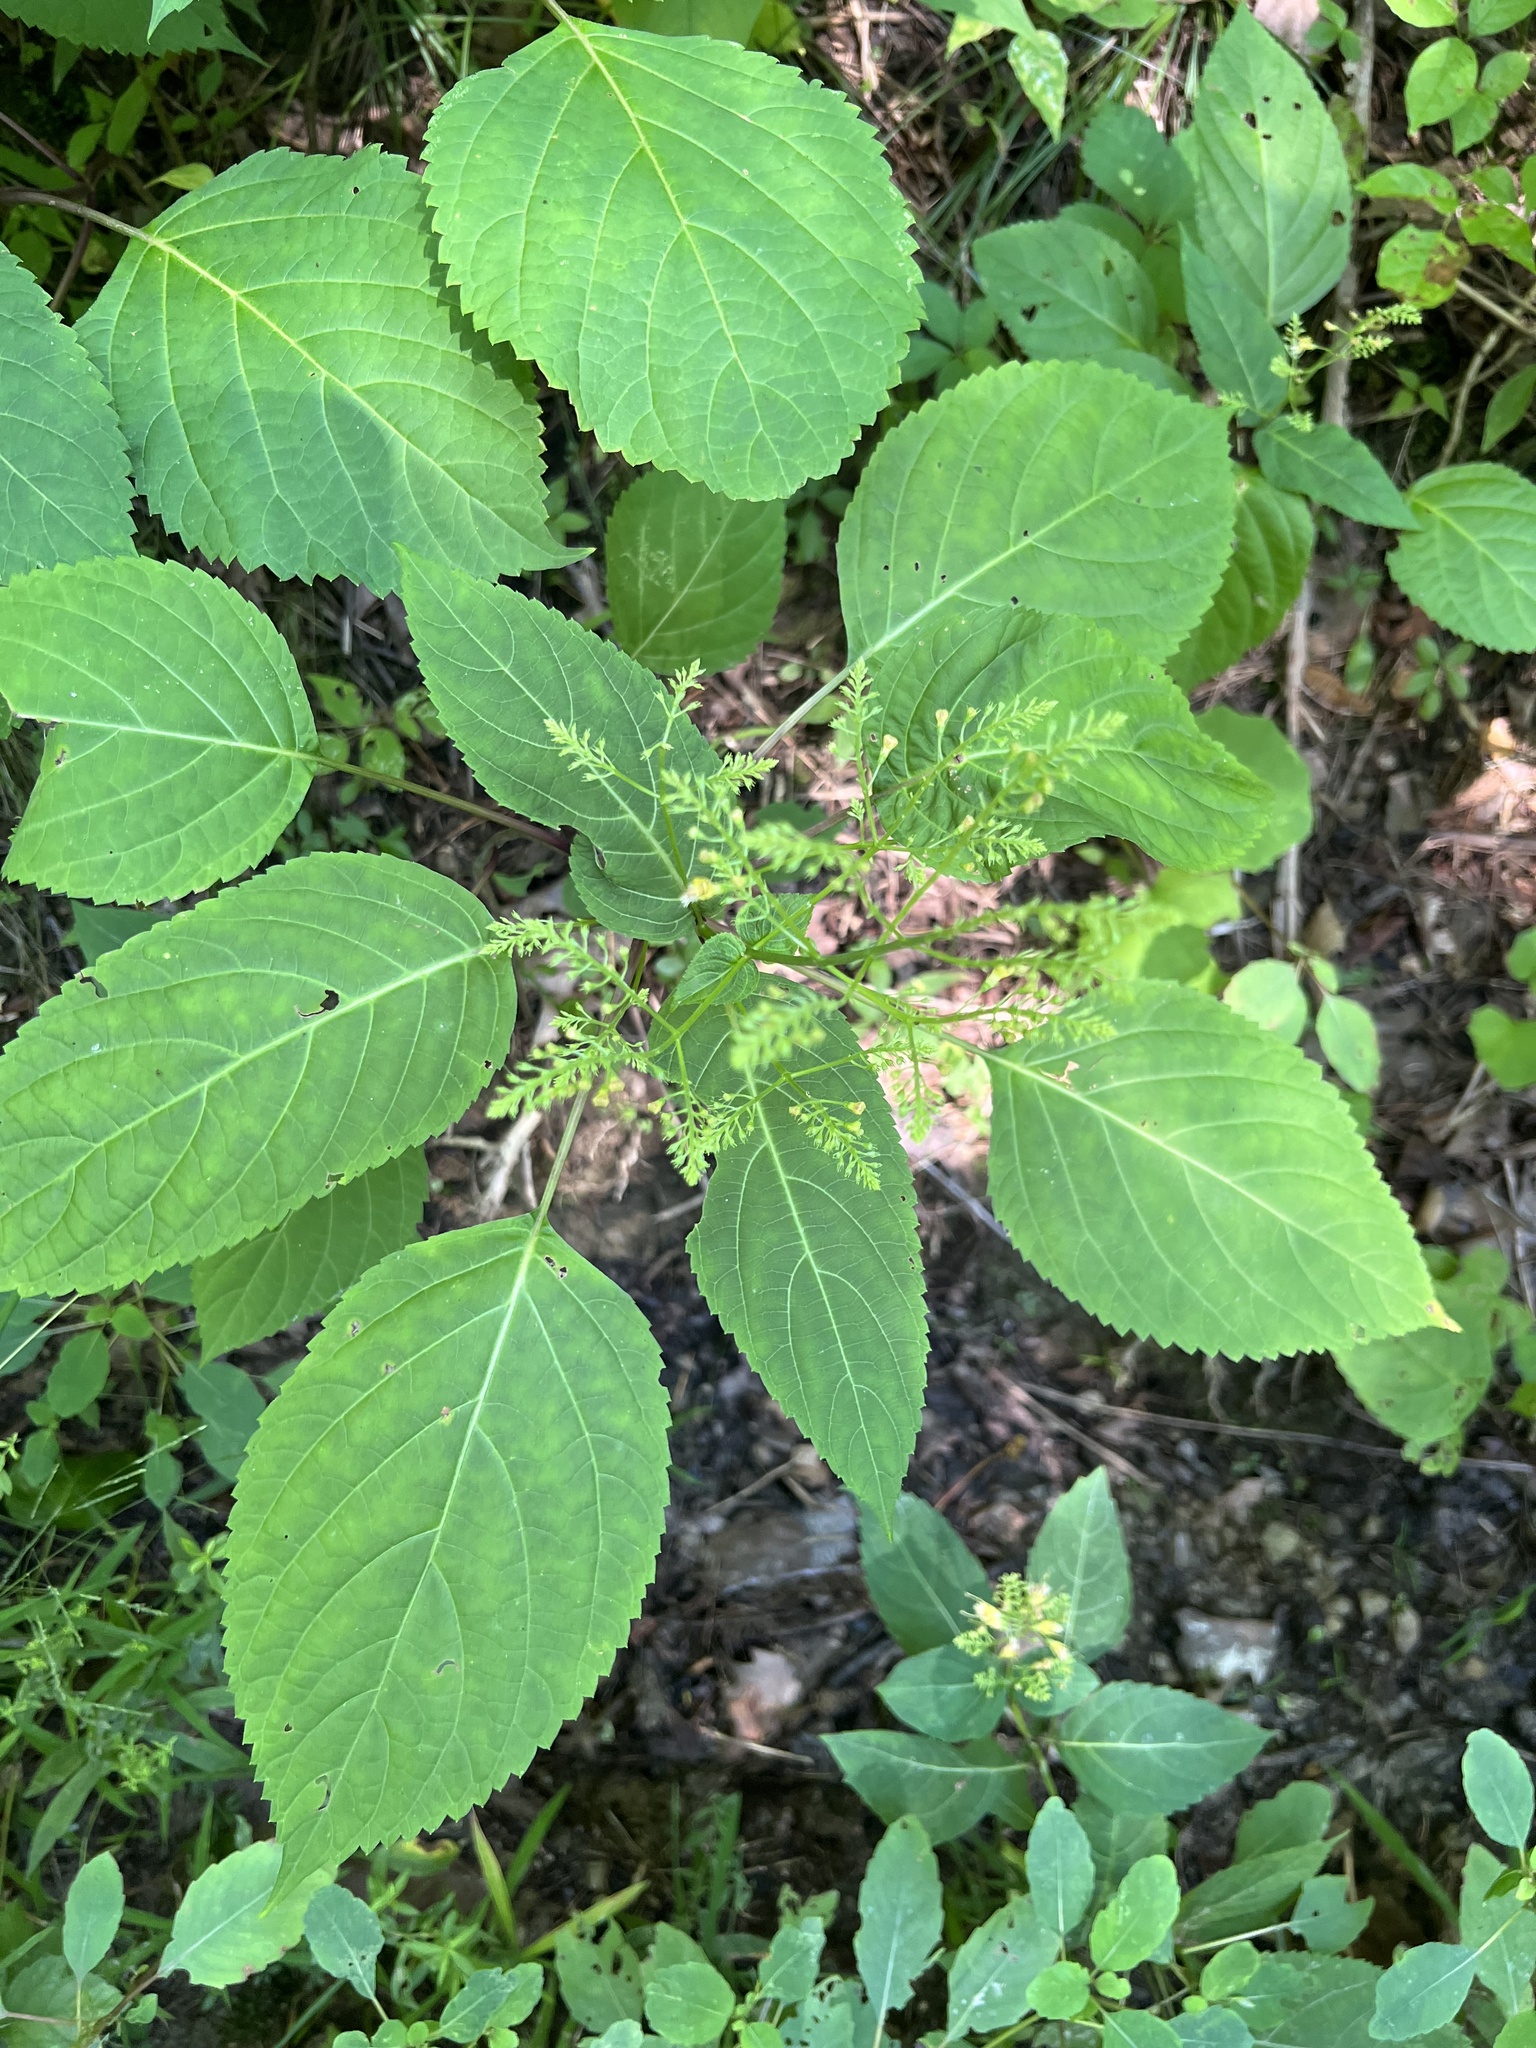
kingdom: Plantae
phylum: Tracheophyta
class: Magnoliopsida
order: Lamiales
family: Lamiaceae
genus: Collinsonia
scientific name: Collinsonia canadensis
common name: Northern horsebalm
